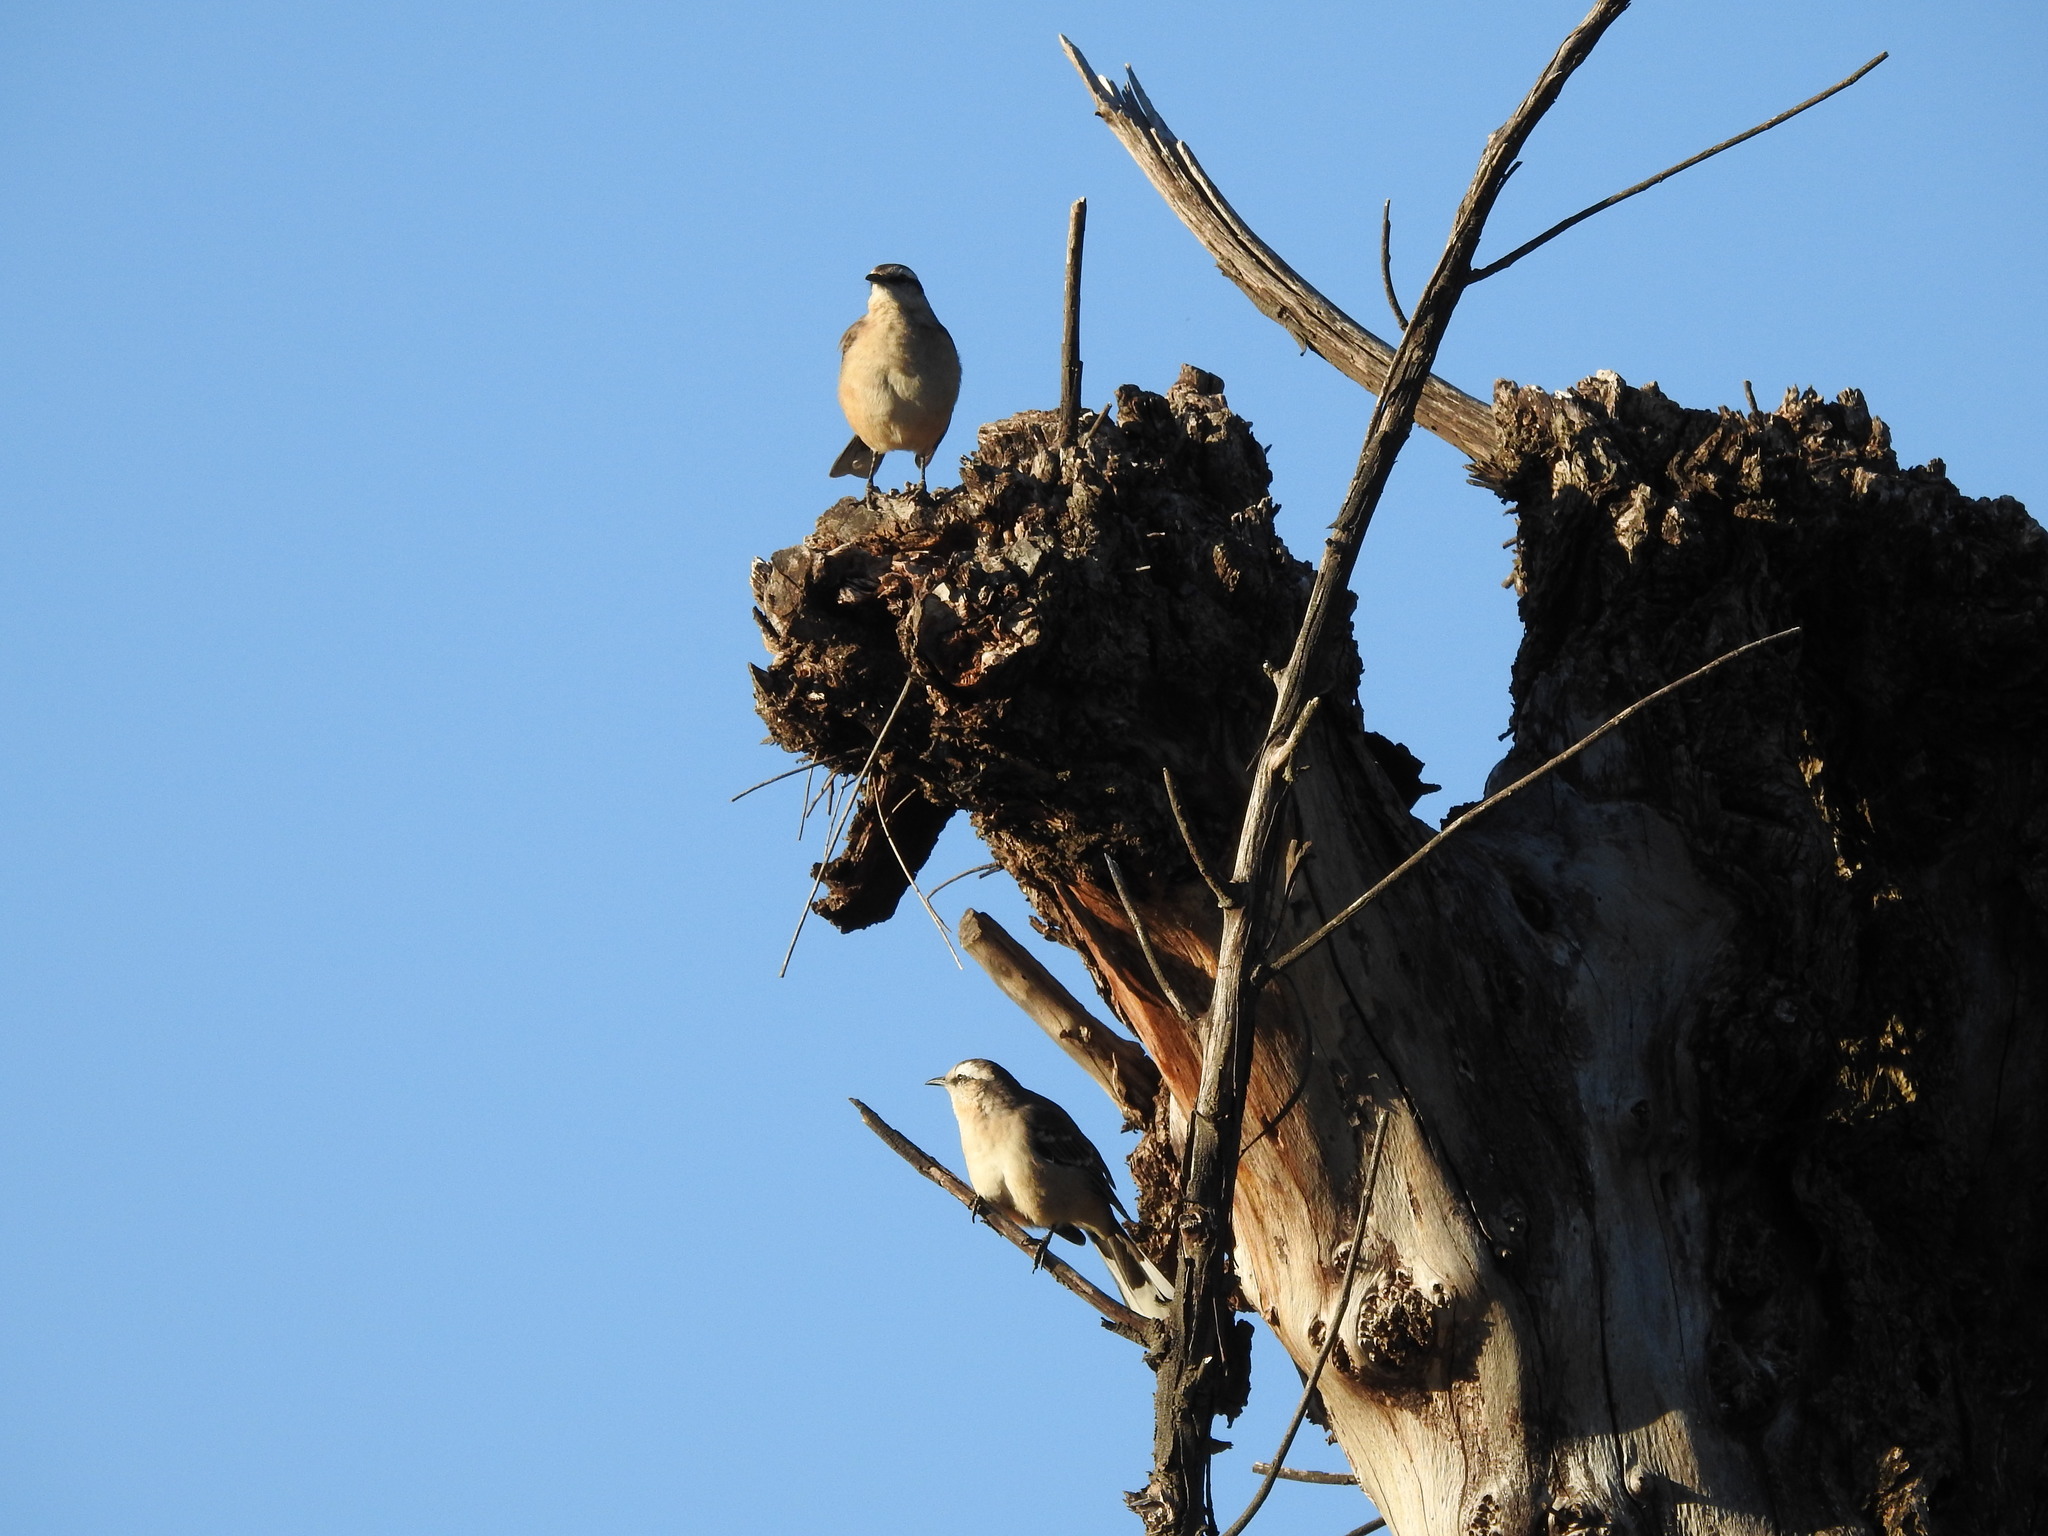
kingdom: Animalia
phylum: Chordata
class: Aves
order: Passeriformes
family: Mimidae
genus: Mimus
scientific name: Mimus saturninus
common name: Chalk-browed mockingbird
